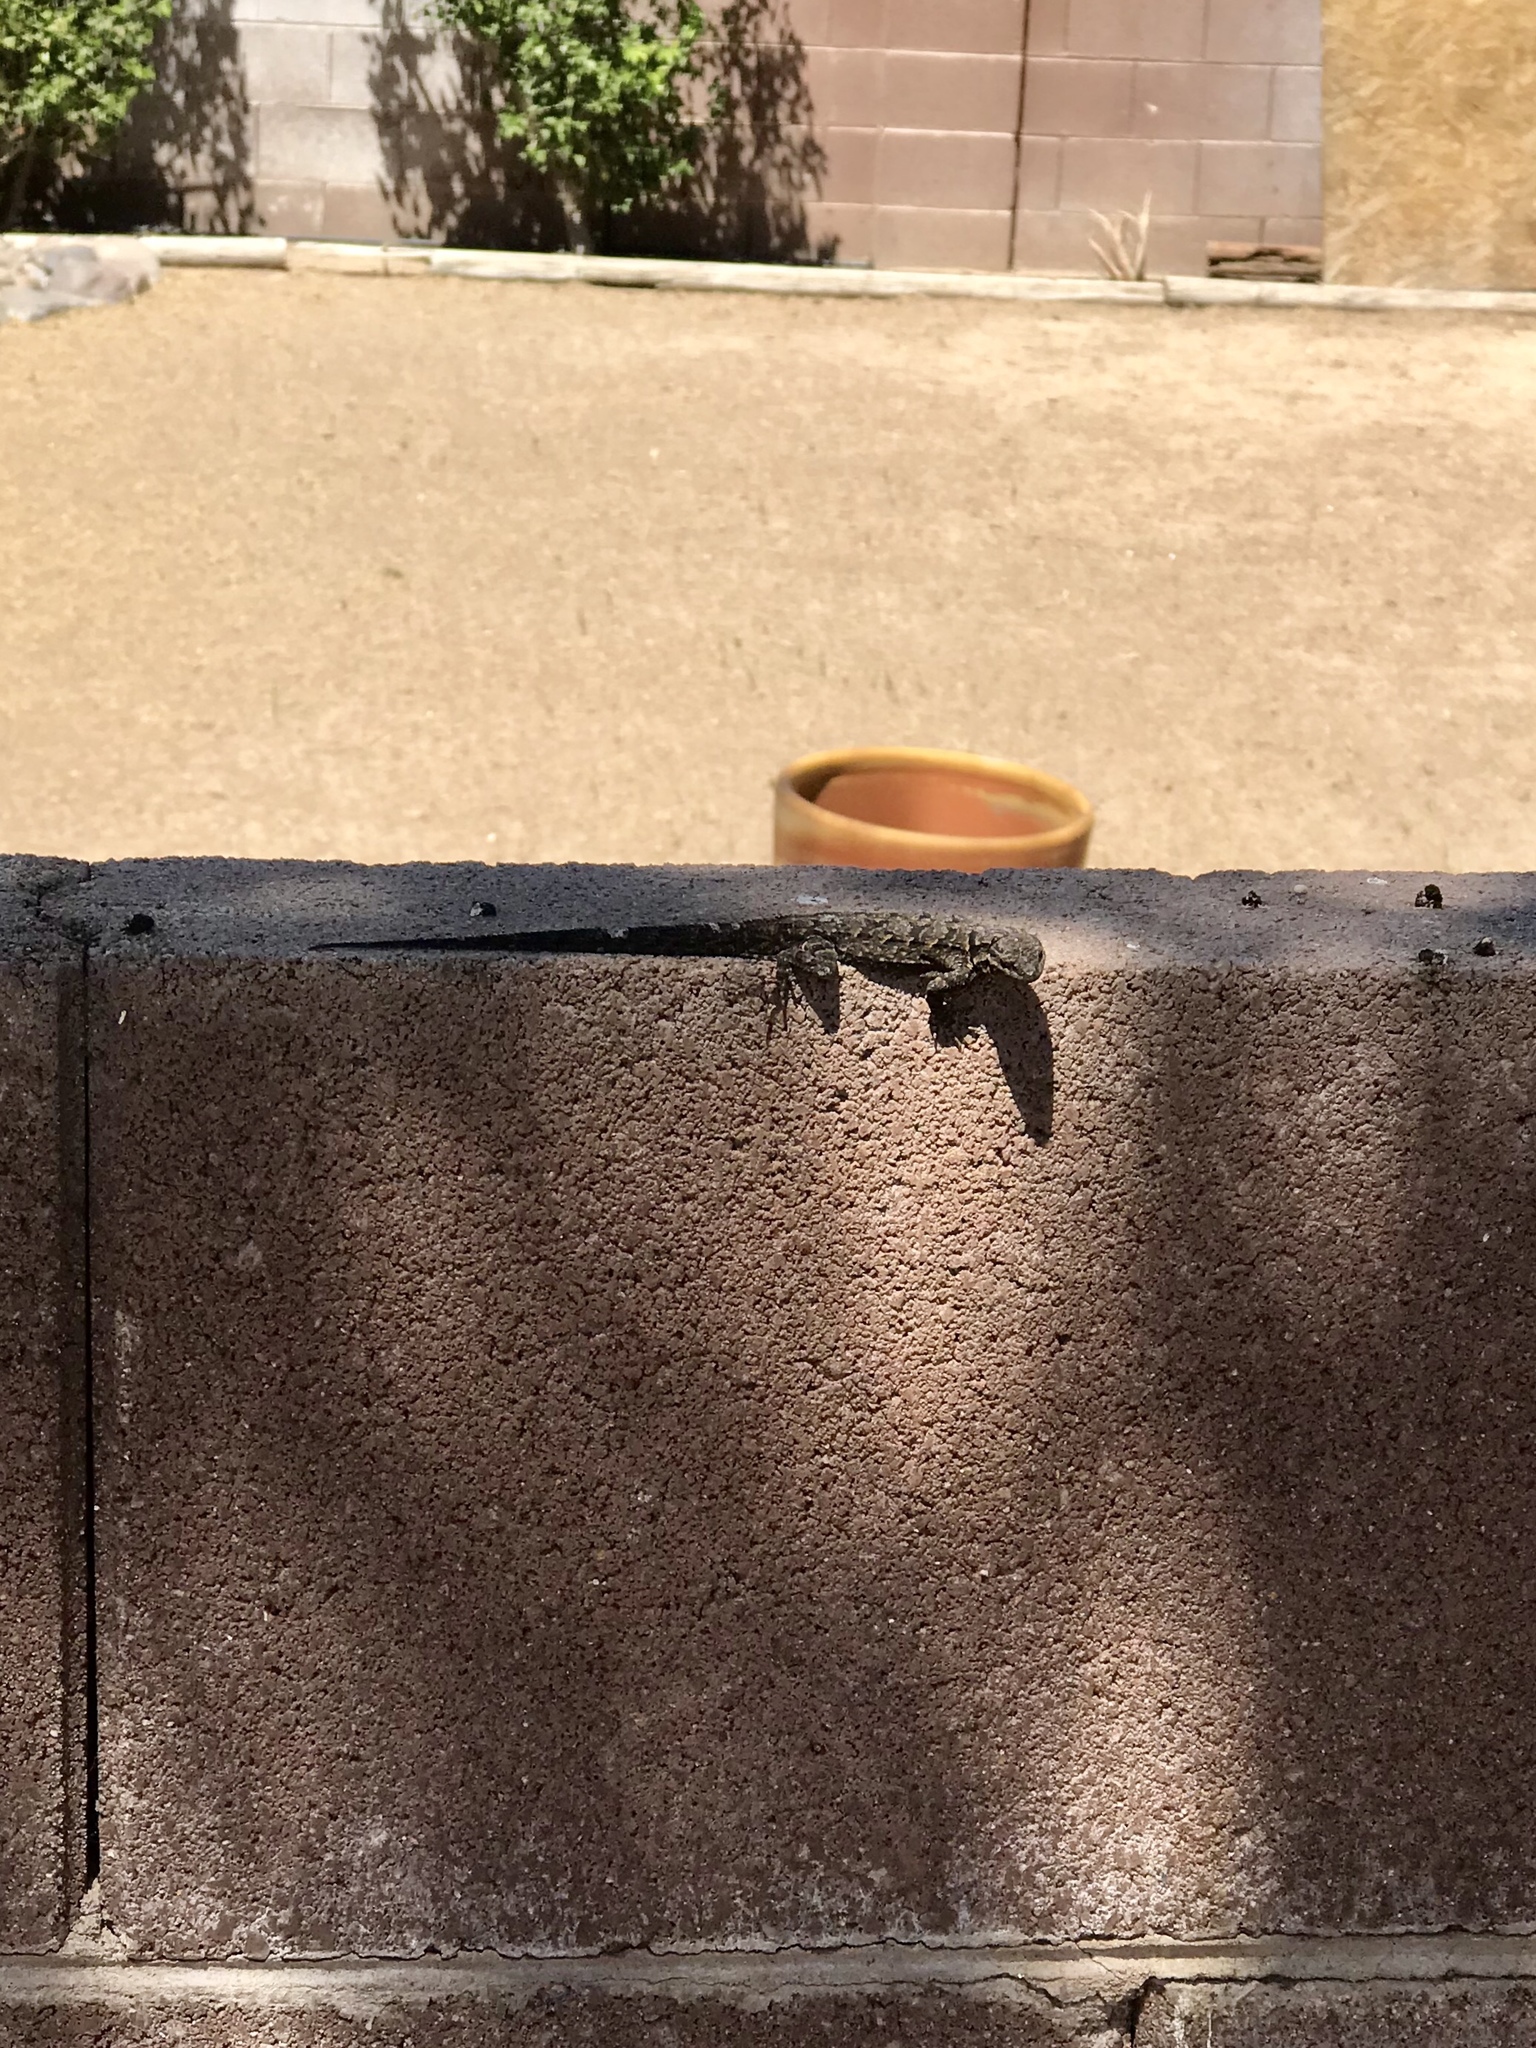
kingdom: Animalia
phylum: Chordata
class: Squamata
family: Phrynosomatidae
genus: Urosaurus
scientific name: Urosaurus ornatus
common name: Ornate tree lizard
